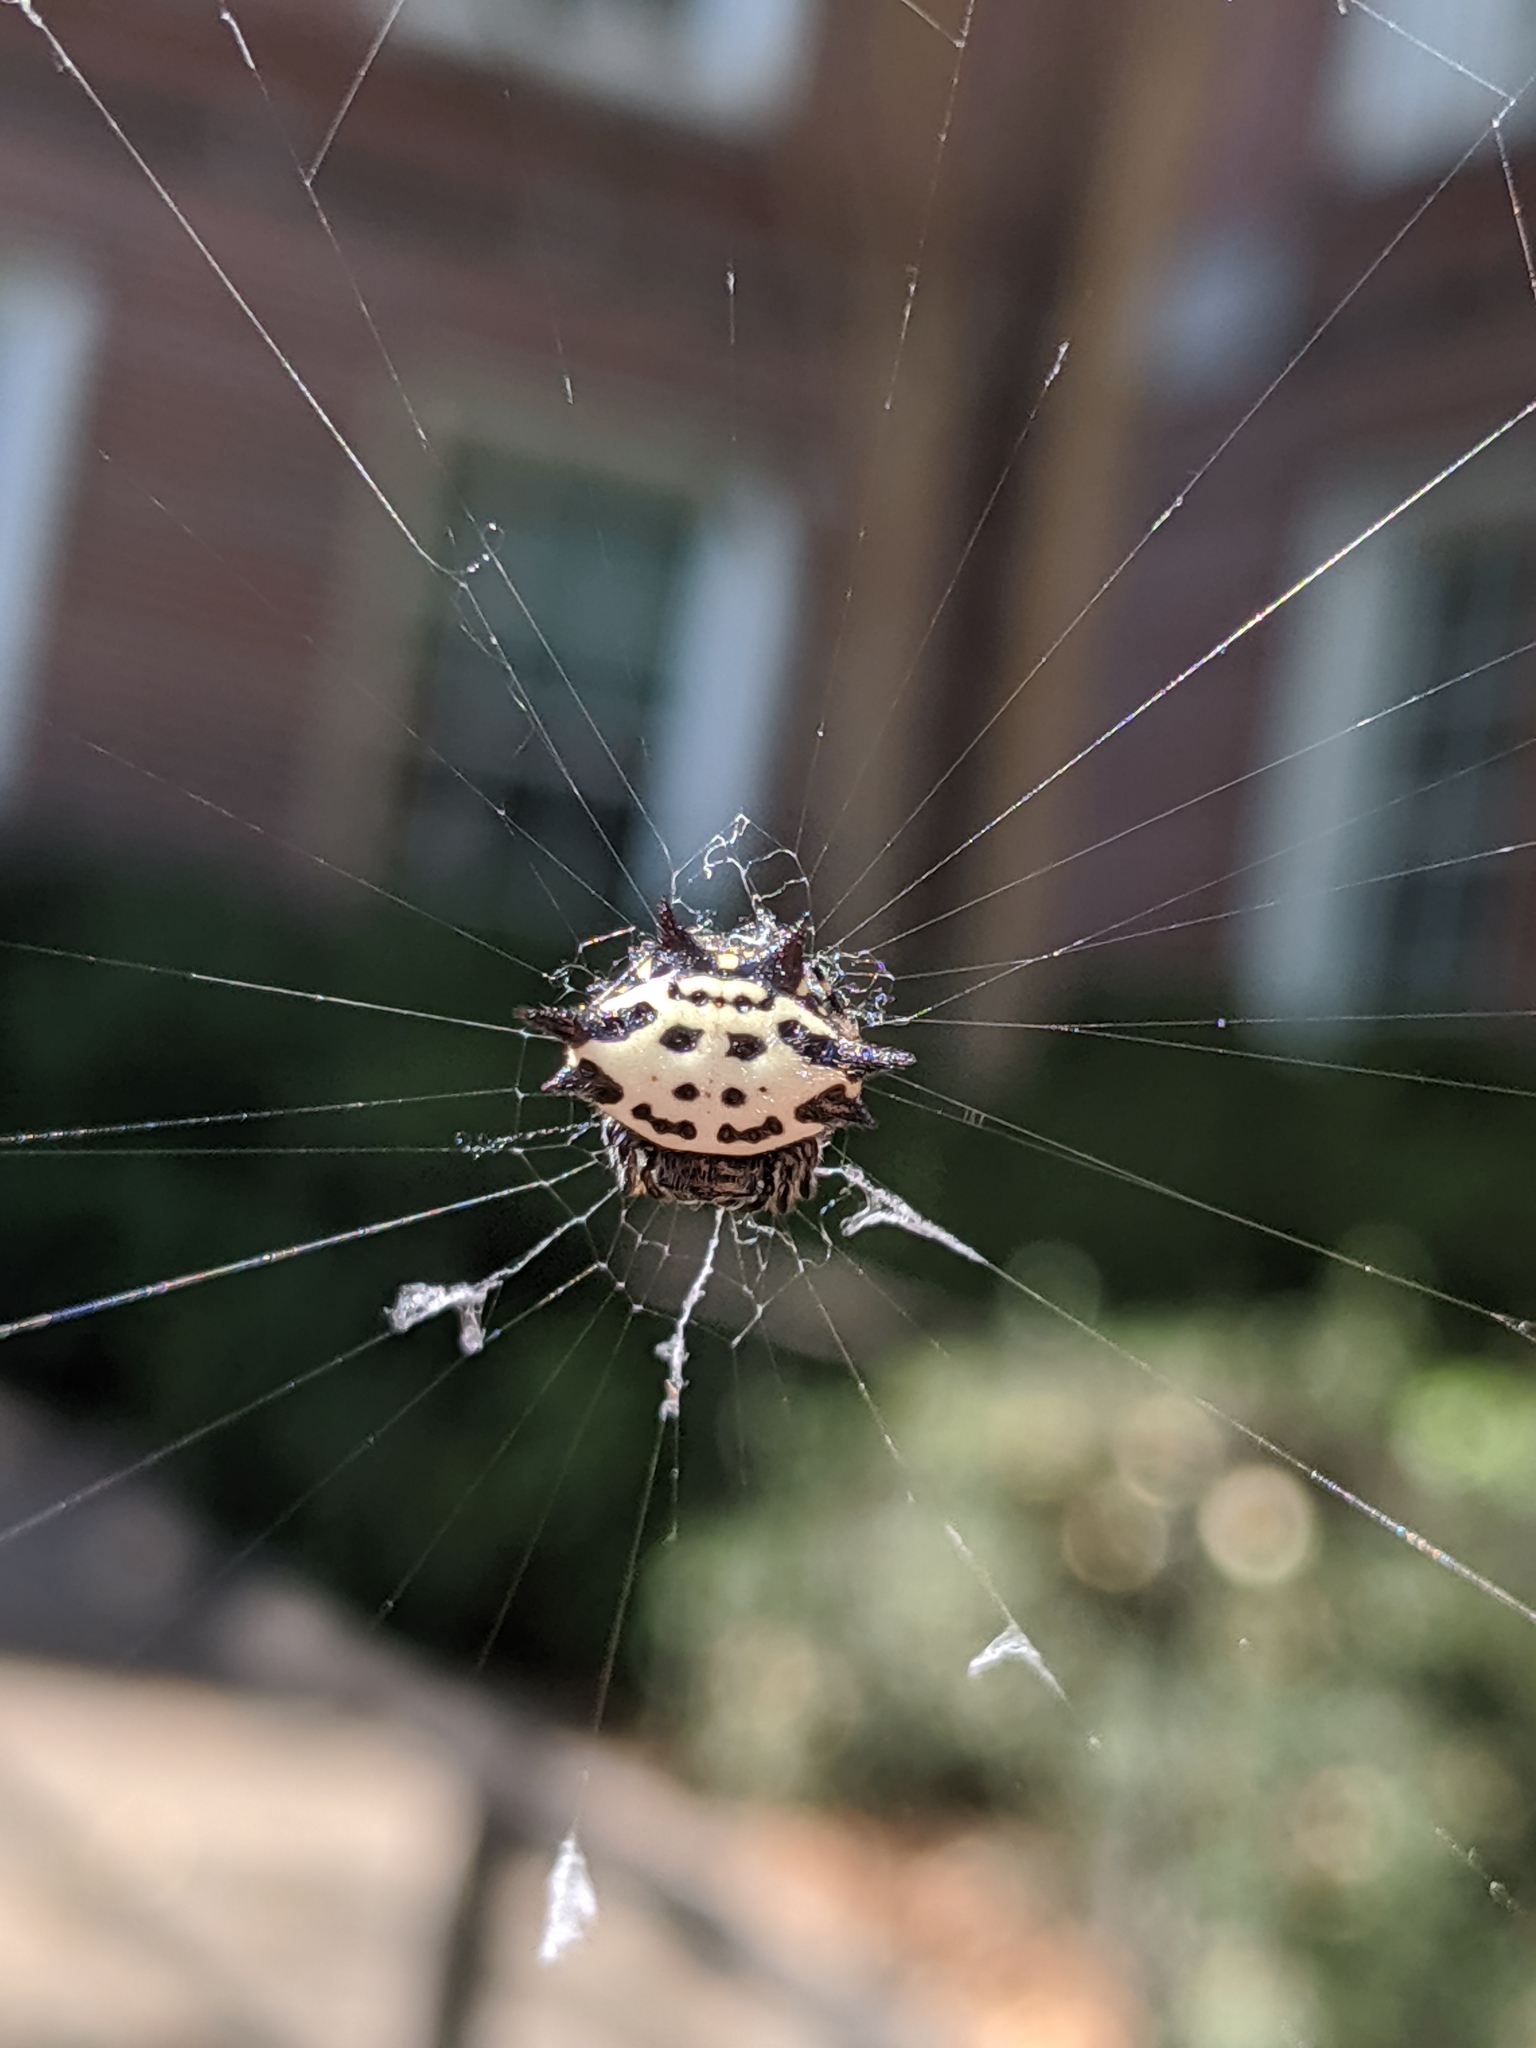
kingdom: Animalia
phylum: Arthropoda
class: Arachnida
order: Araneae
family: Araneidae
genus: Gasteracantha
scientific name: Gasteracantha cancriformis
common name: Orb weavers
